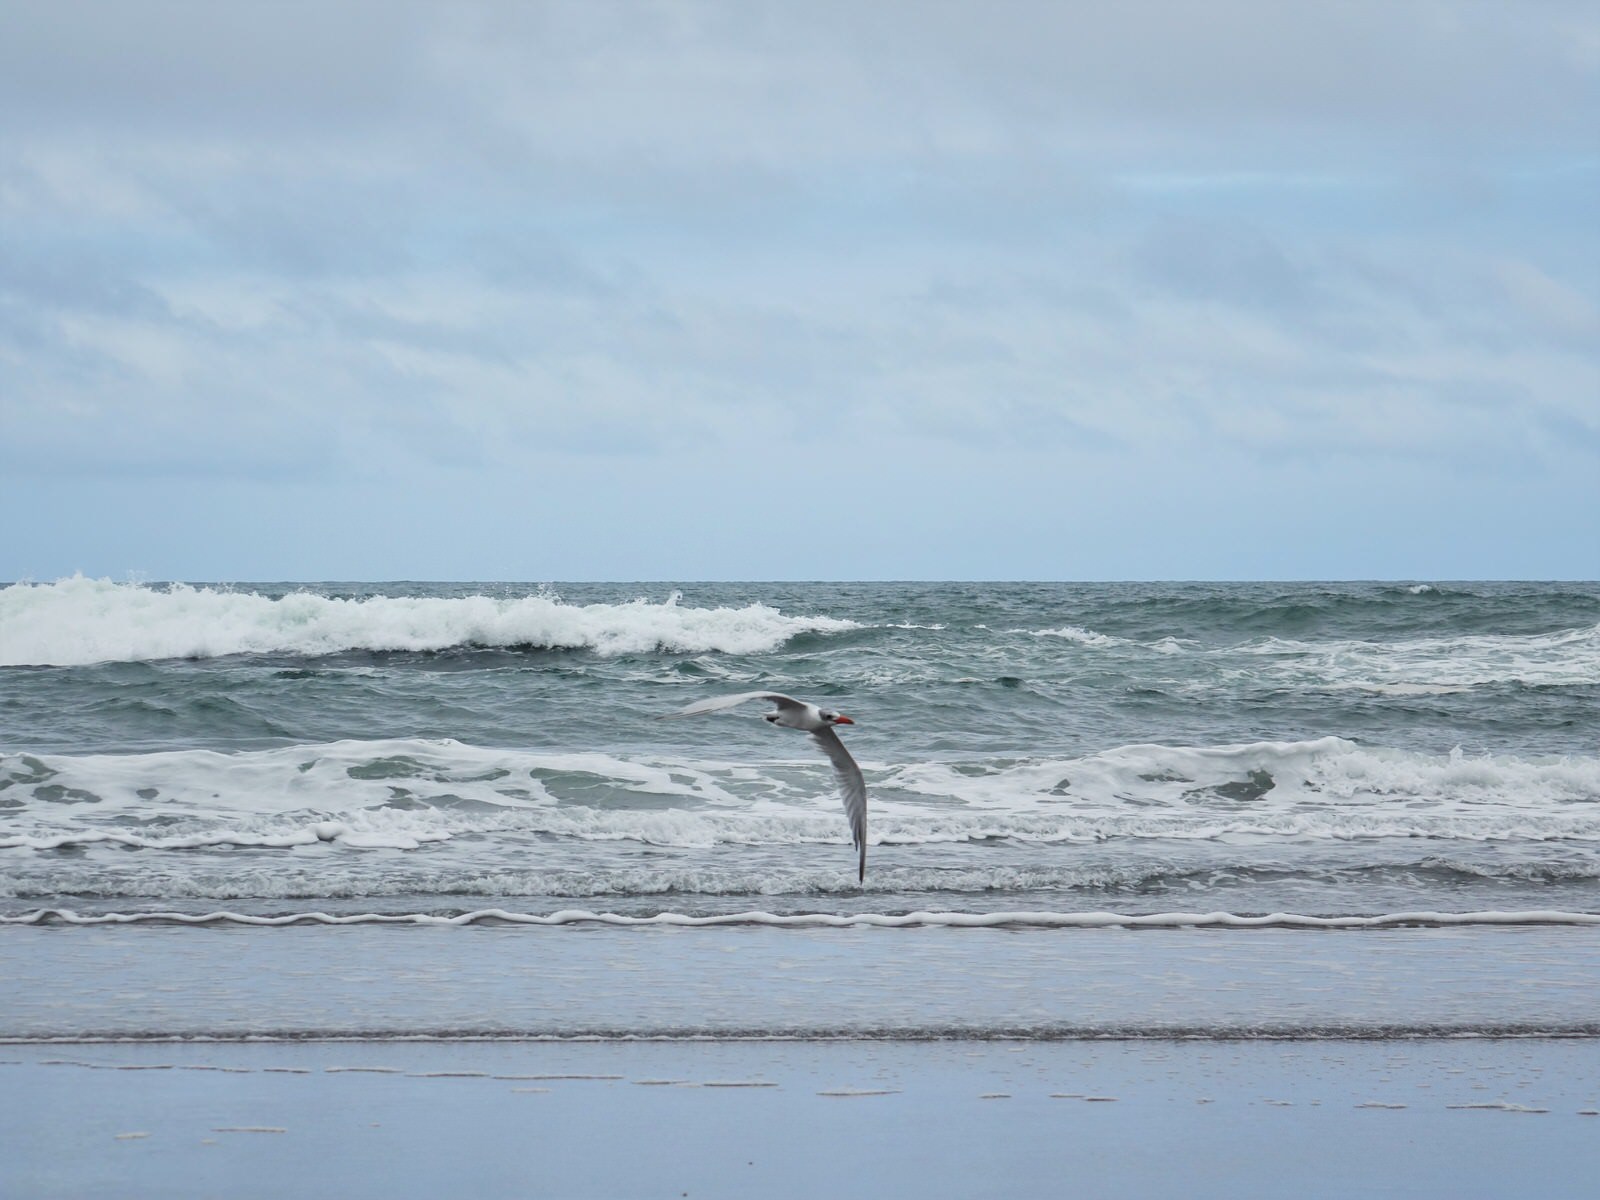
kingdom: Animalia
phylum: Chordata
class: Aves
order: Charadriiformes
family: Laridae
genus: Hydroprogne
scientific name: Hydroprogne caspia
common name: Caspian tern
